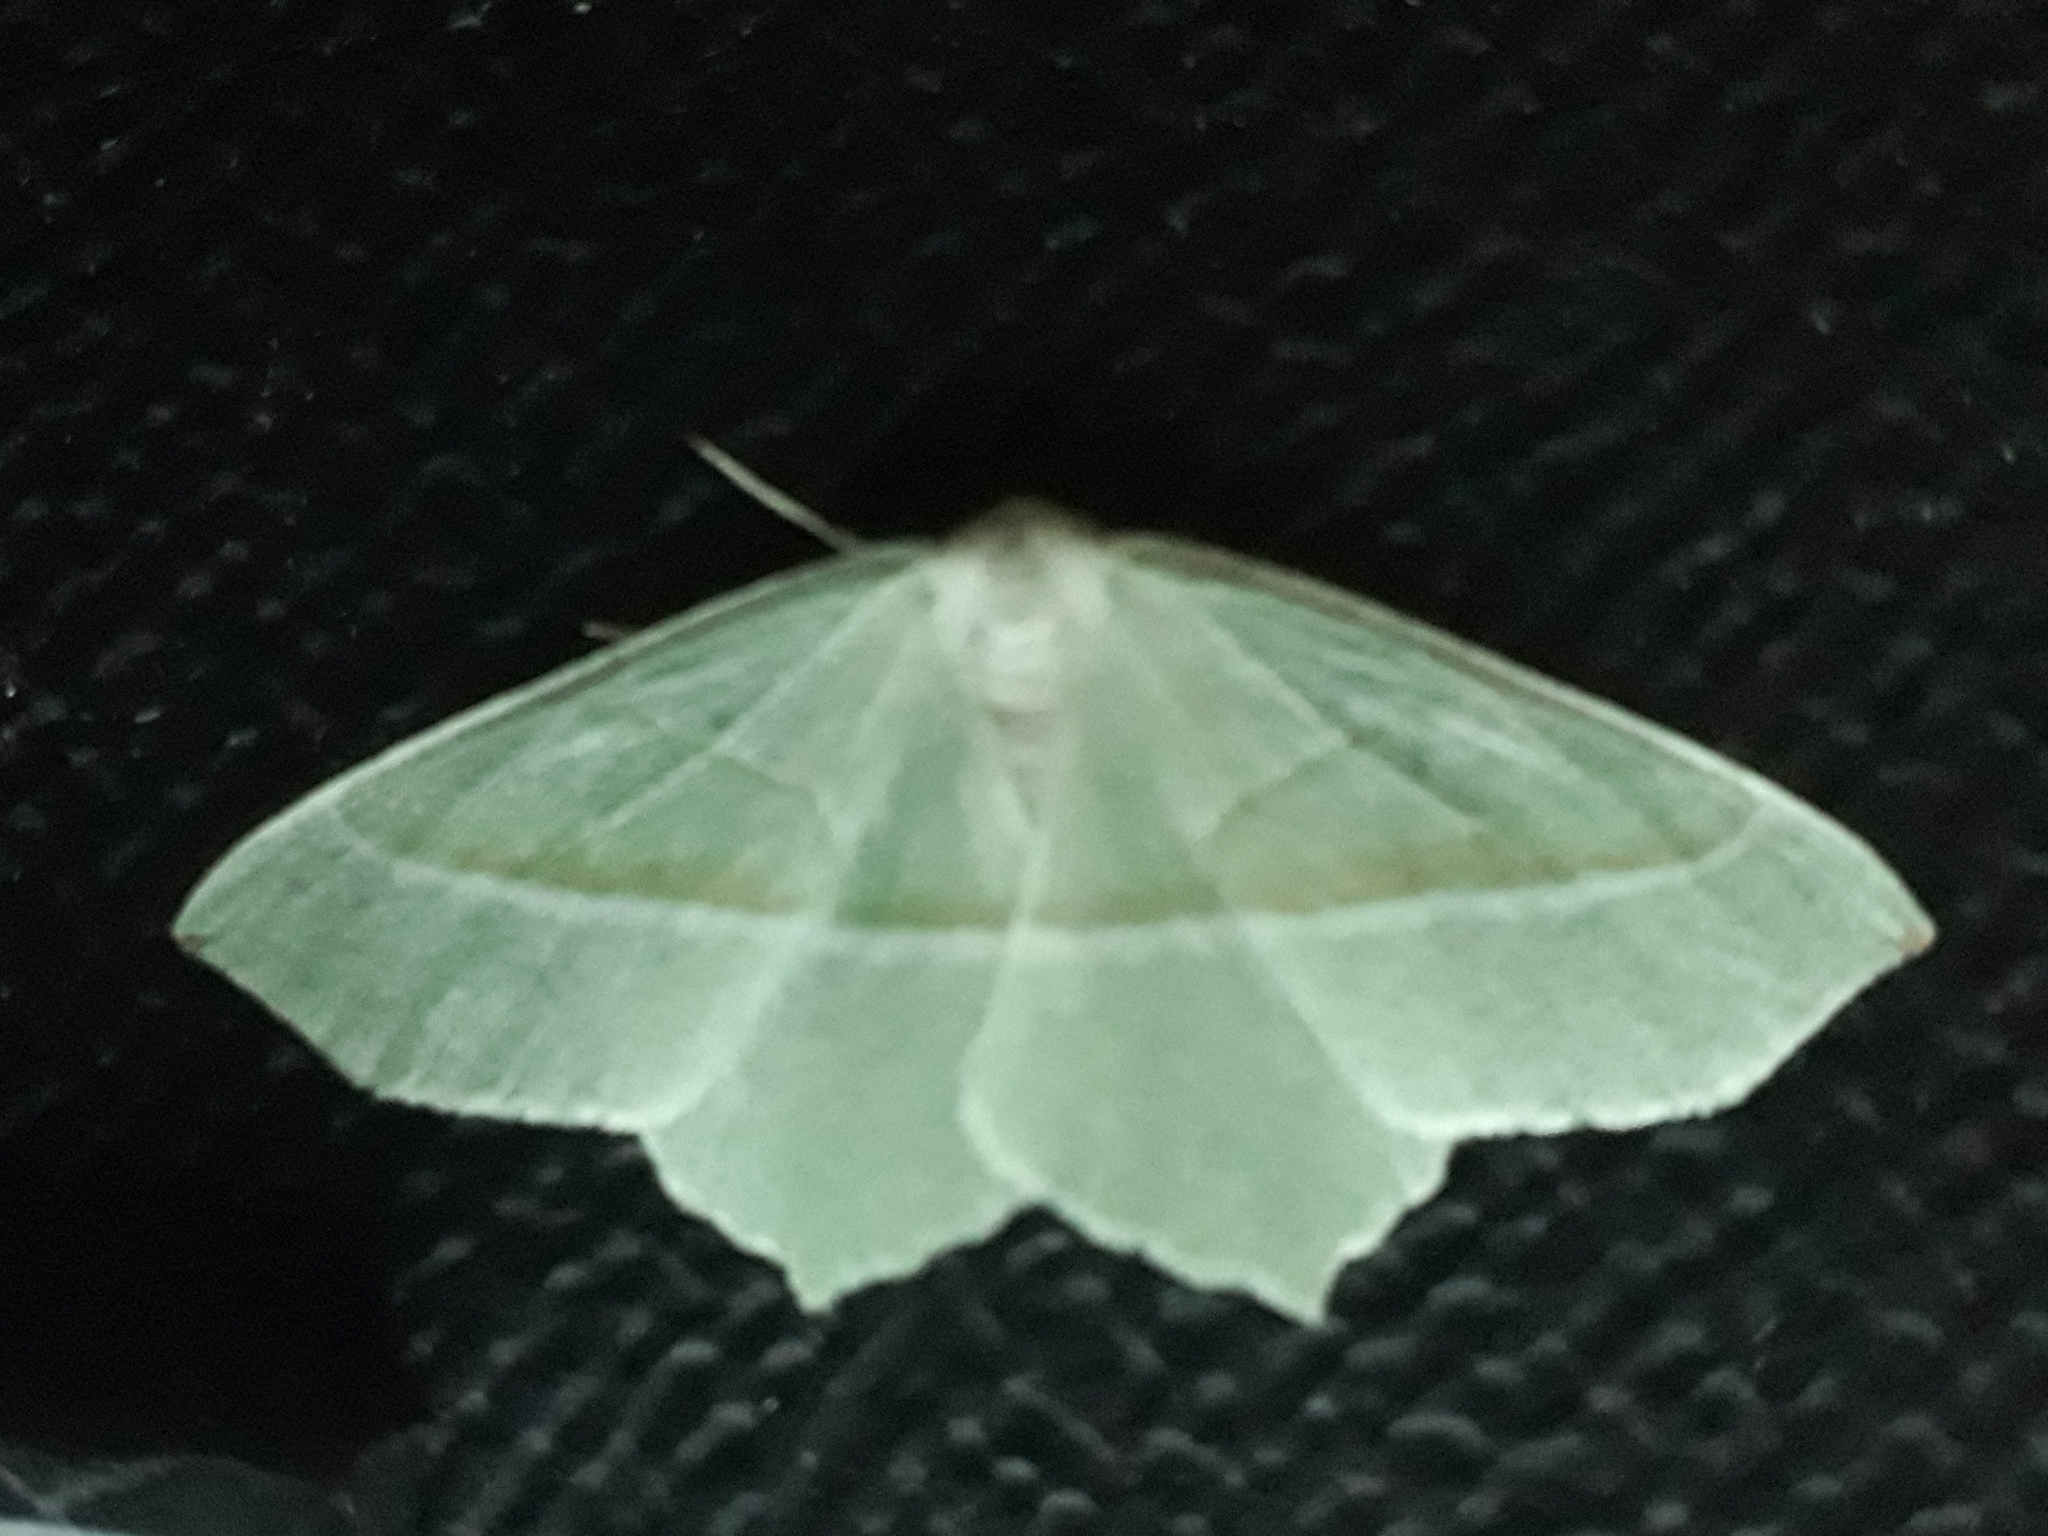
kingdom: Animalia
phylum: Arthropoda
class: Insecta
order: Lepidoptera
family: Geometridae
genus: Campaea
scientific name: Campaea margaritaria
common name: Light emerald
